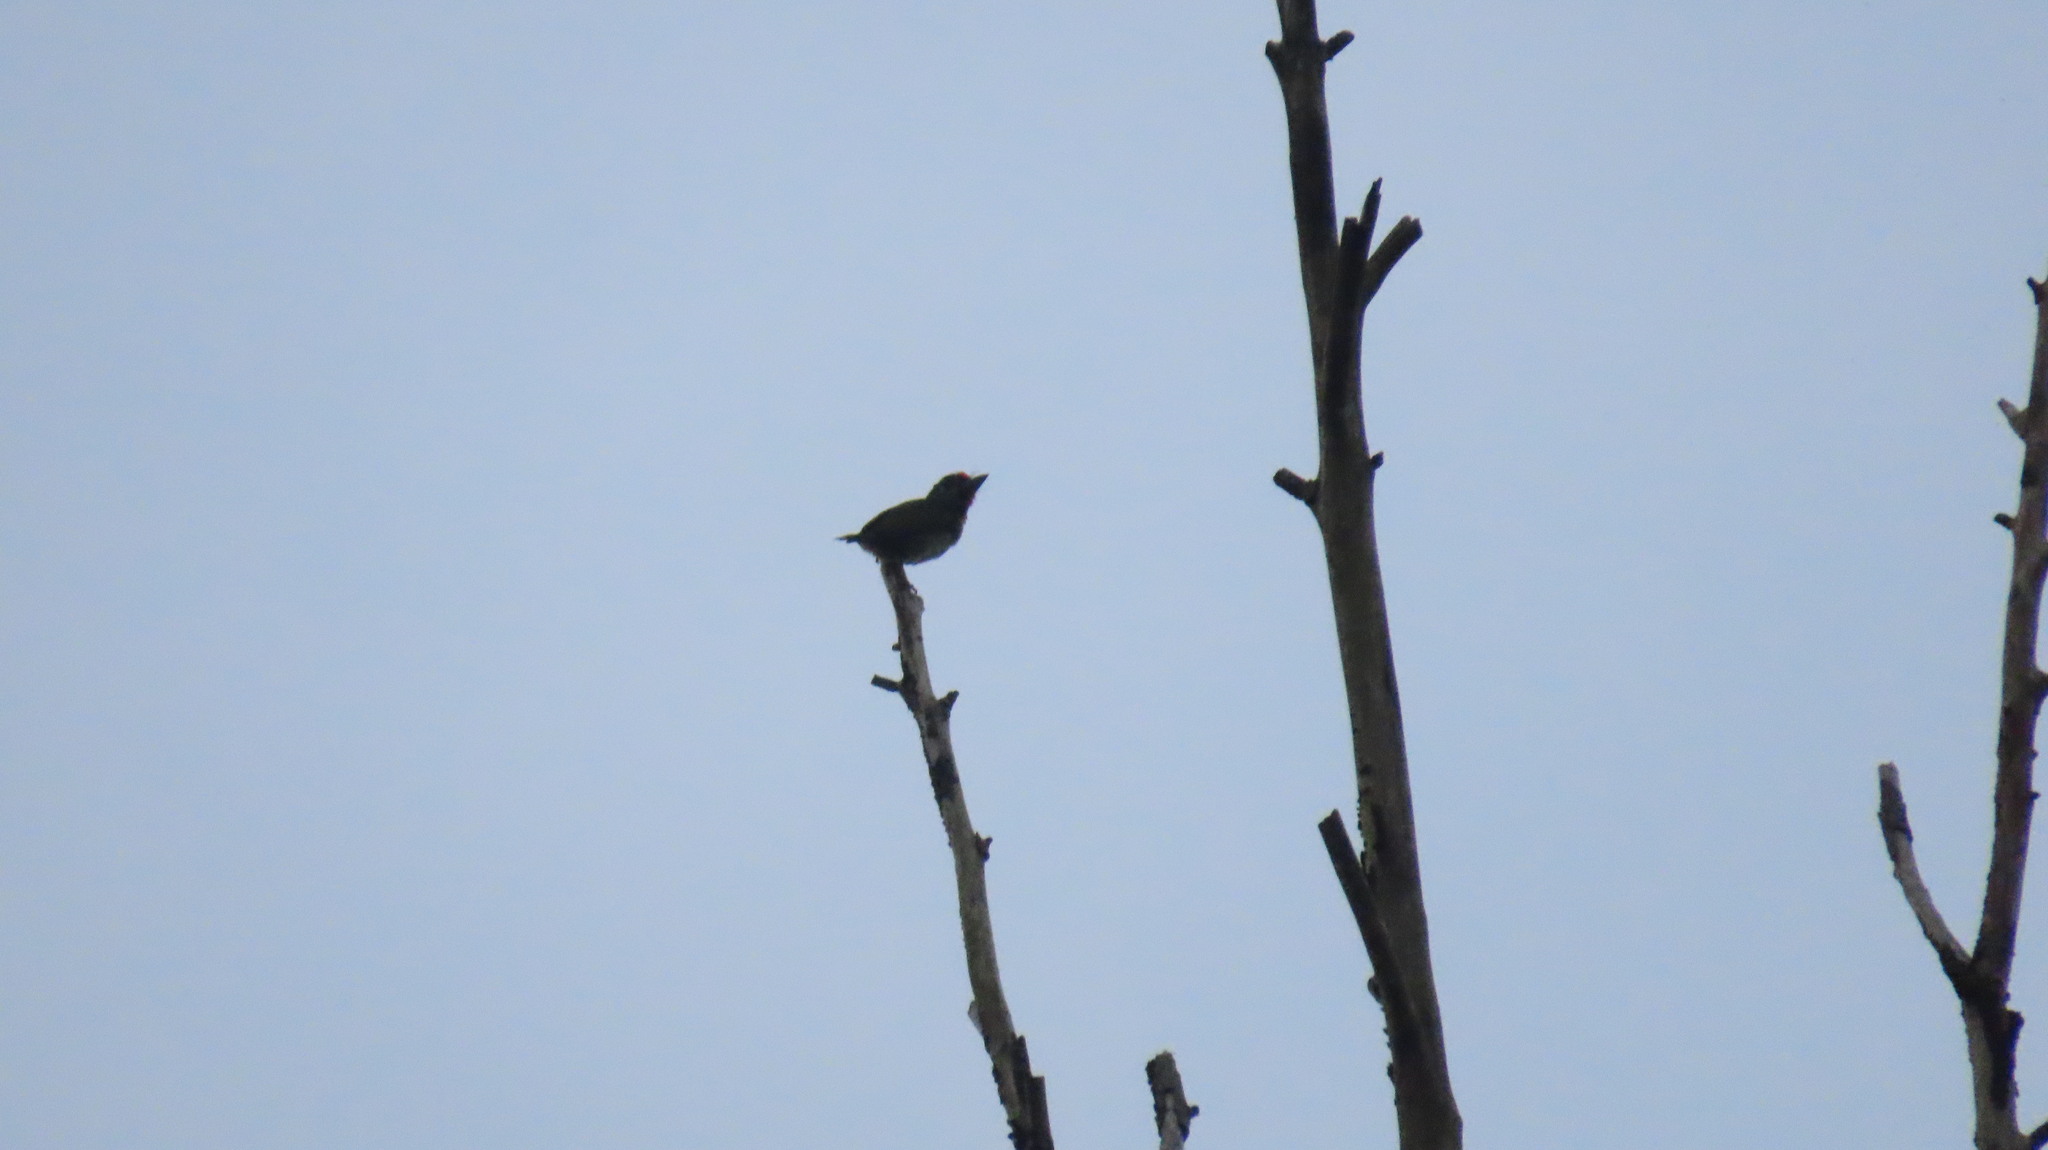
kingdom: Animalia
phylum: Chordata
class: Aves
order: Piciformes
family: Megalaimidae
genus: Psilopogon
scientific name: Psilopogon malabaricus
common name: Malabar barbet
